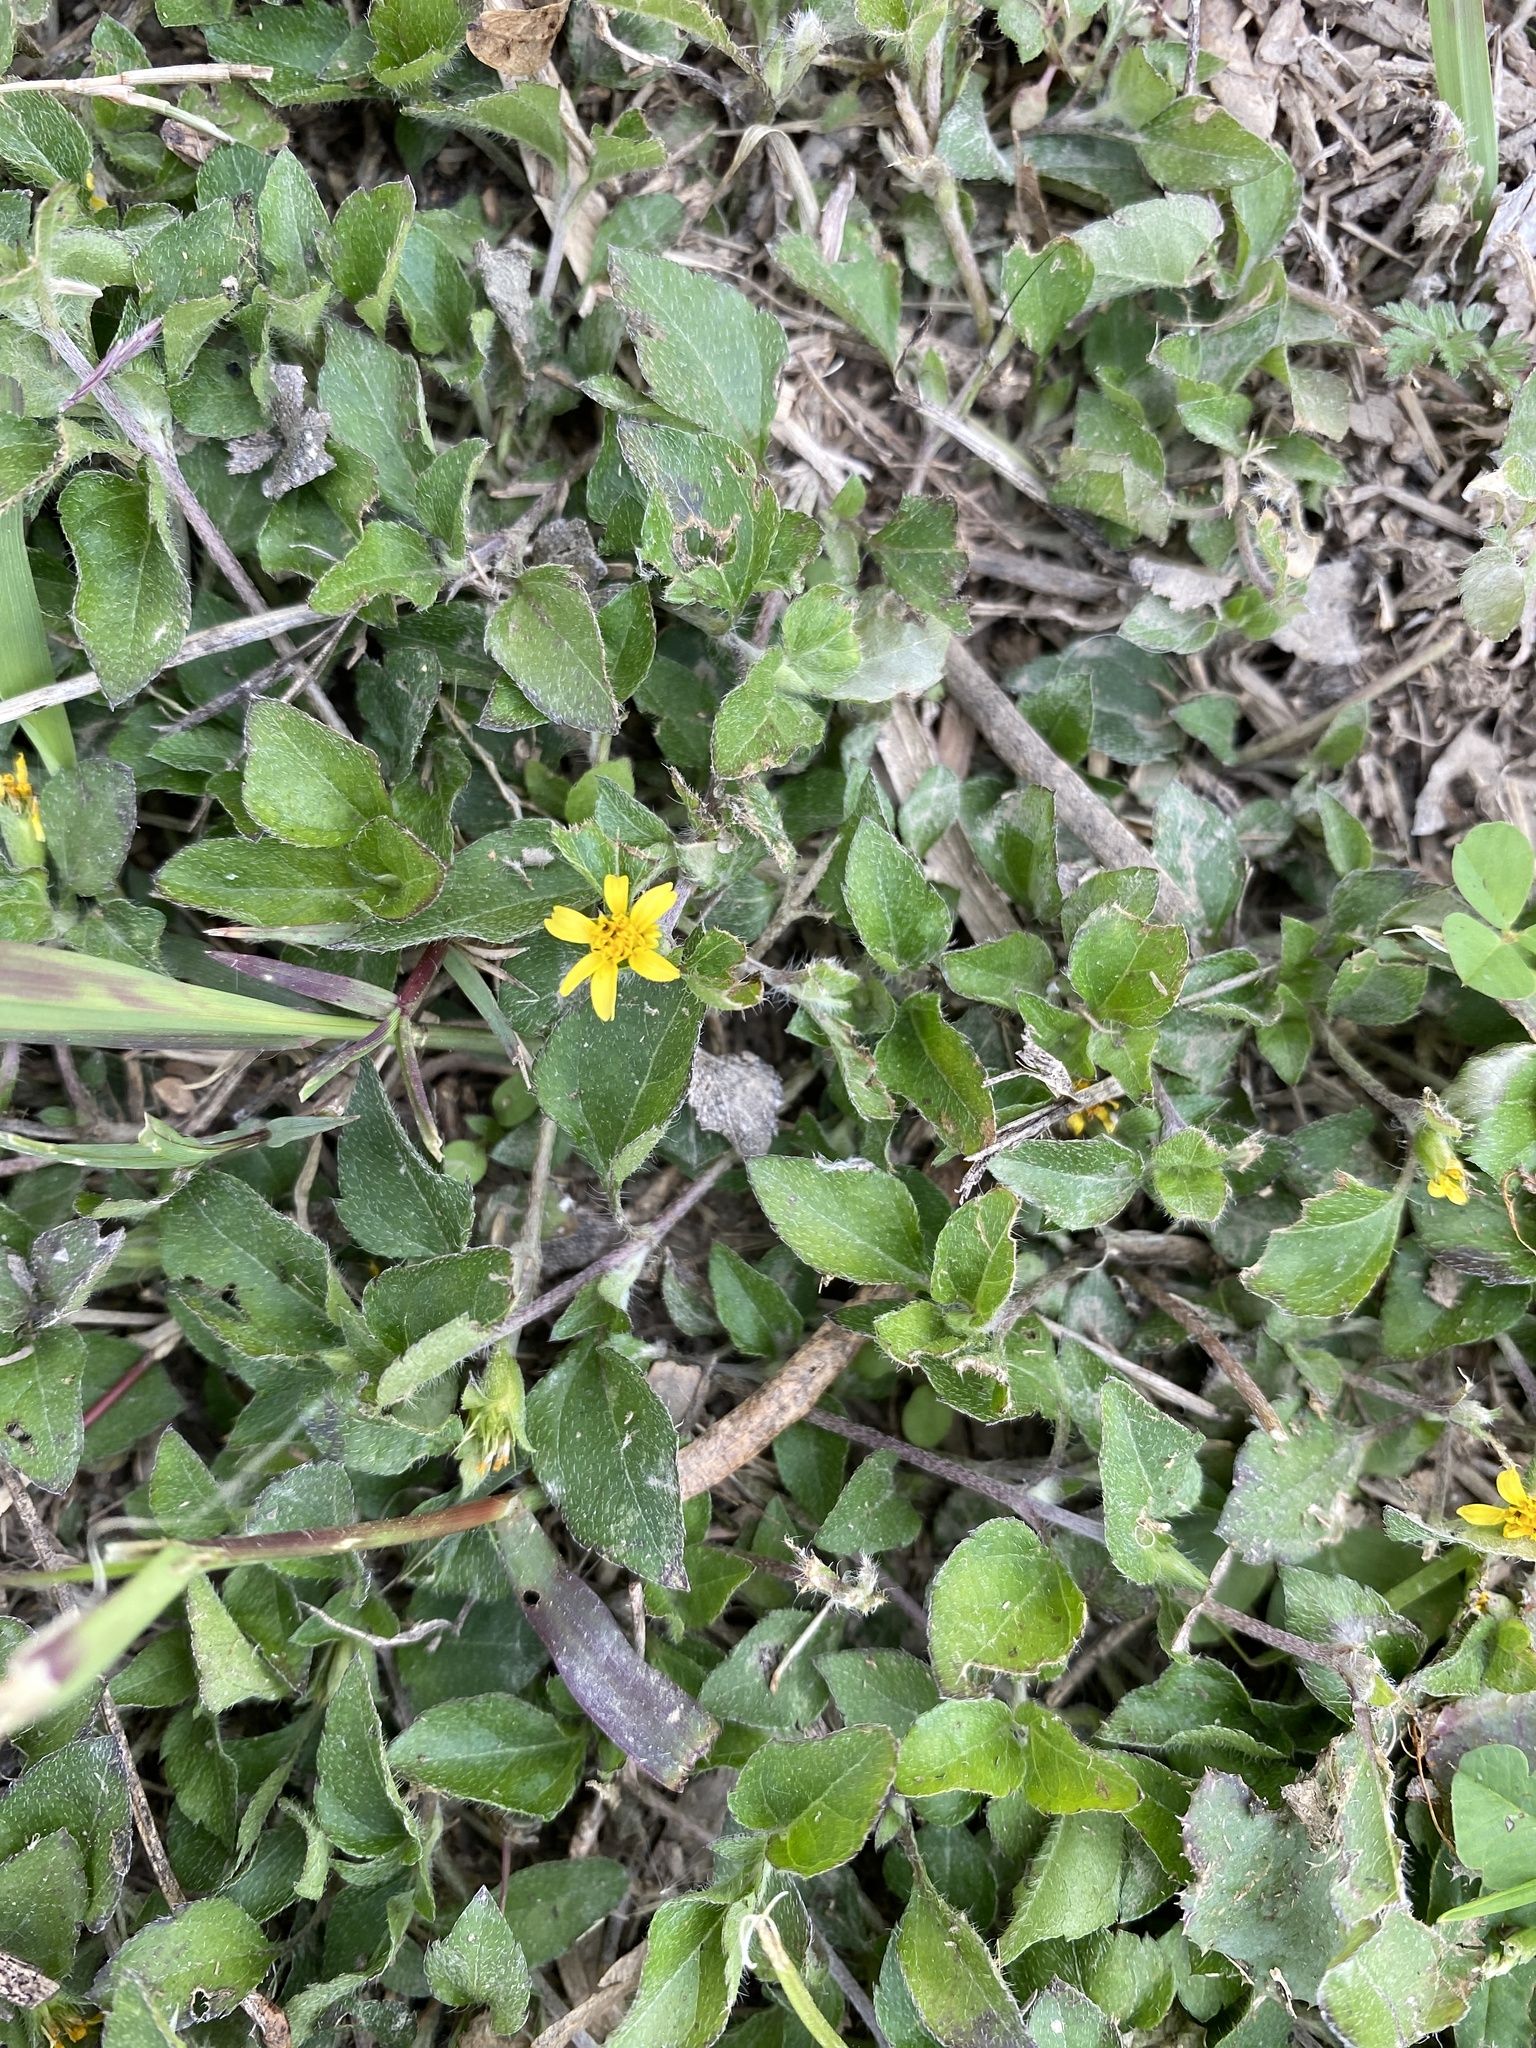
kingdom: Plantae
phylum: Tracheophyta
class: Magnoliopsida
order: Asterales
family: Asteraceae
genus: Calyptocarpus
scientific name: Calyptocarpus vialis
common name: Straggler daisy
